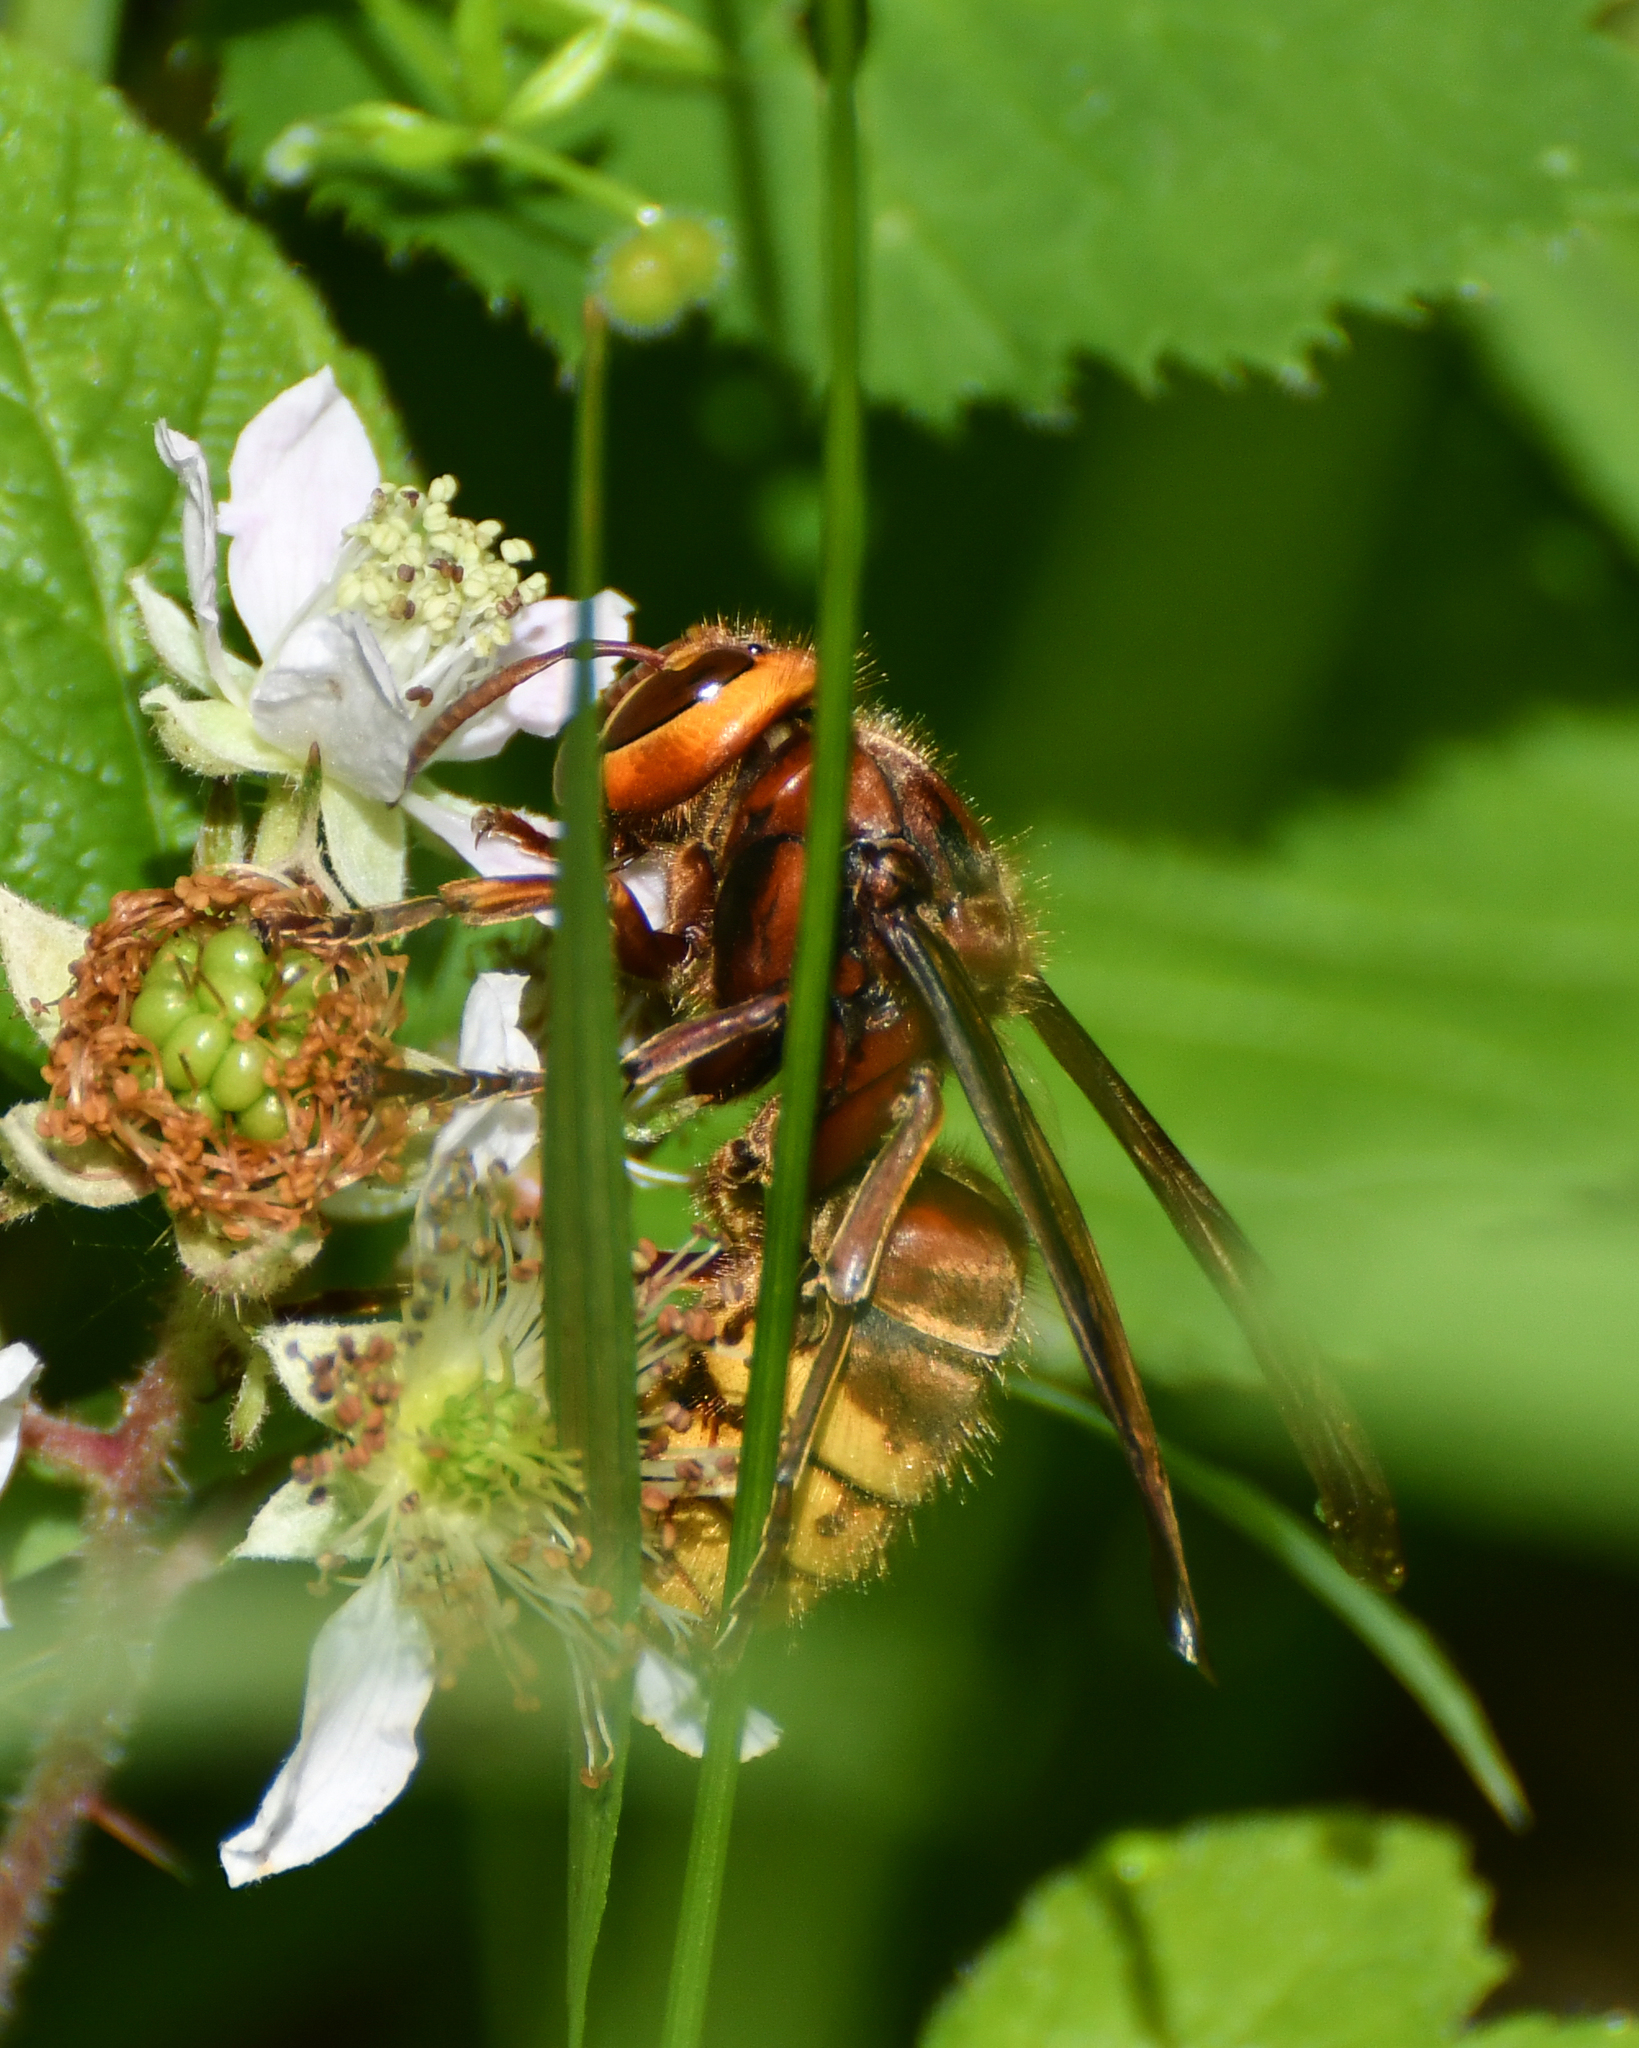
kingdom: Animalia
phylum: Arthropoda
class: Insecta
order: Hymenoptera
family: Vespidae
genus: Vespa
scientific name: Vespa crabro
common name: Hornet
